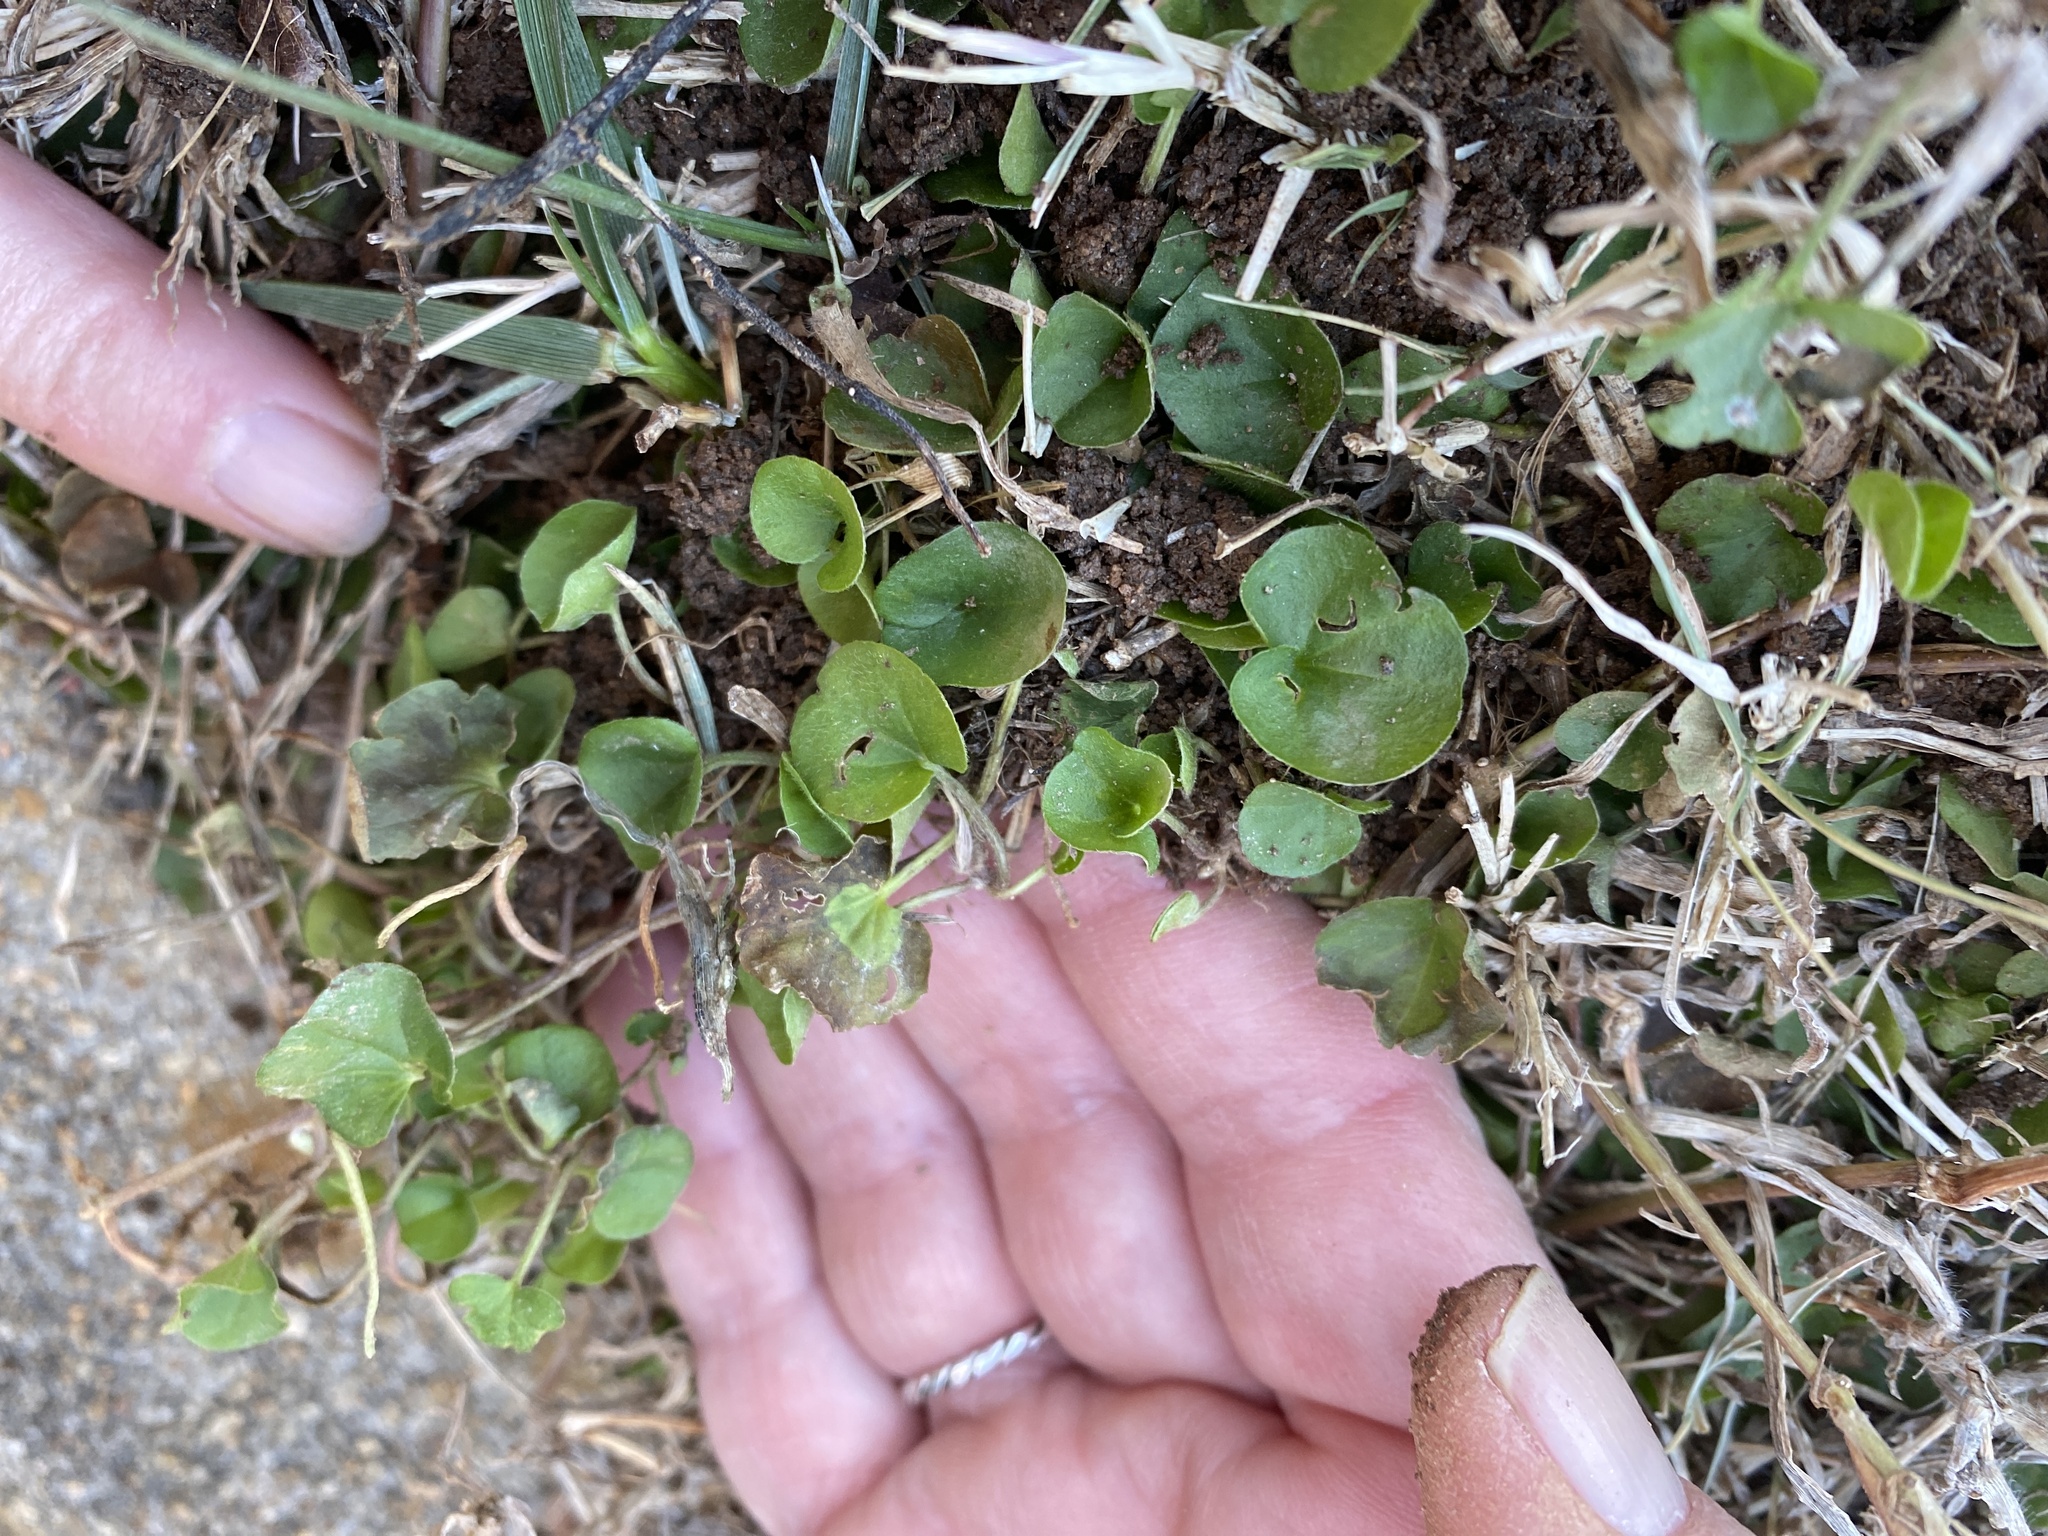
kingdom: Plantae
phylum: Tracheophyta
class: Magnoliopsida
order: Solanales
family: Convolvulaceae
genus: Dichondra
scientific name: Dichondra carolinensis
